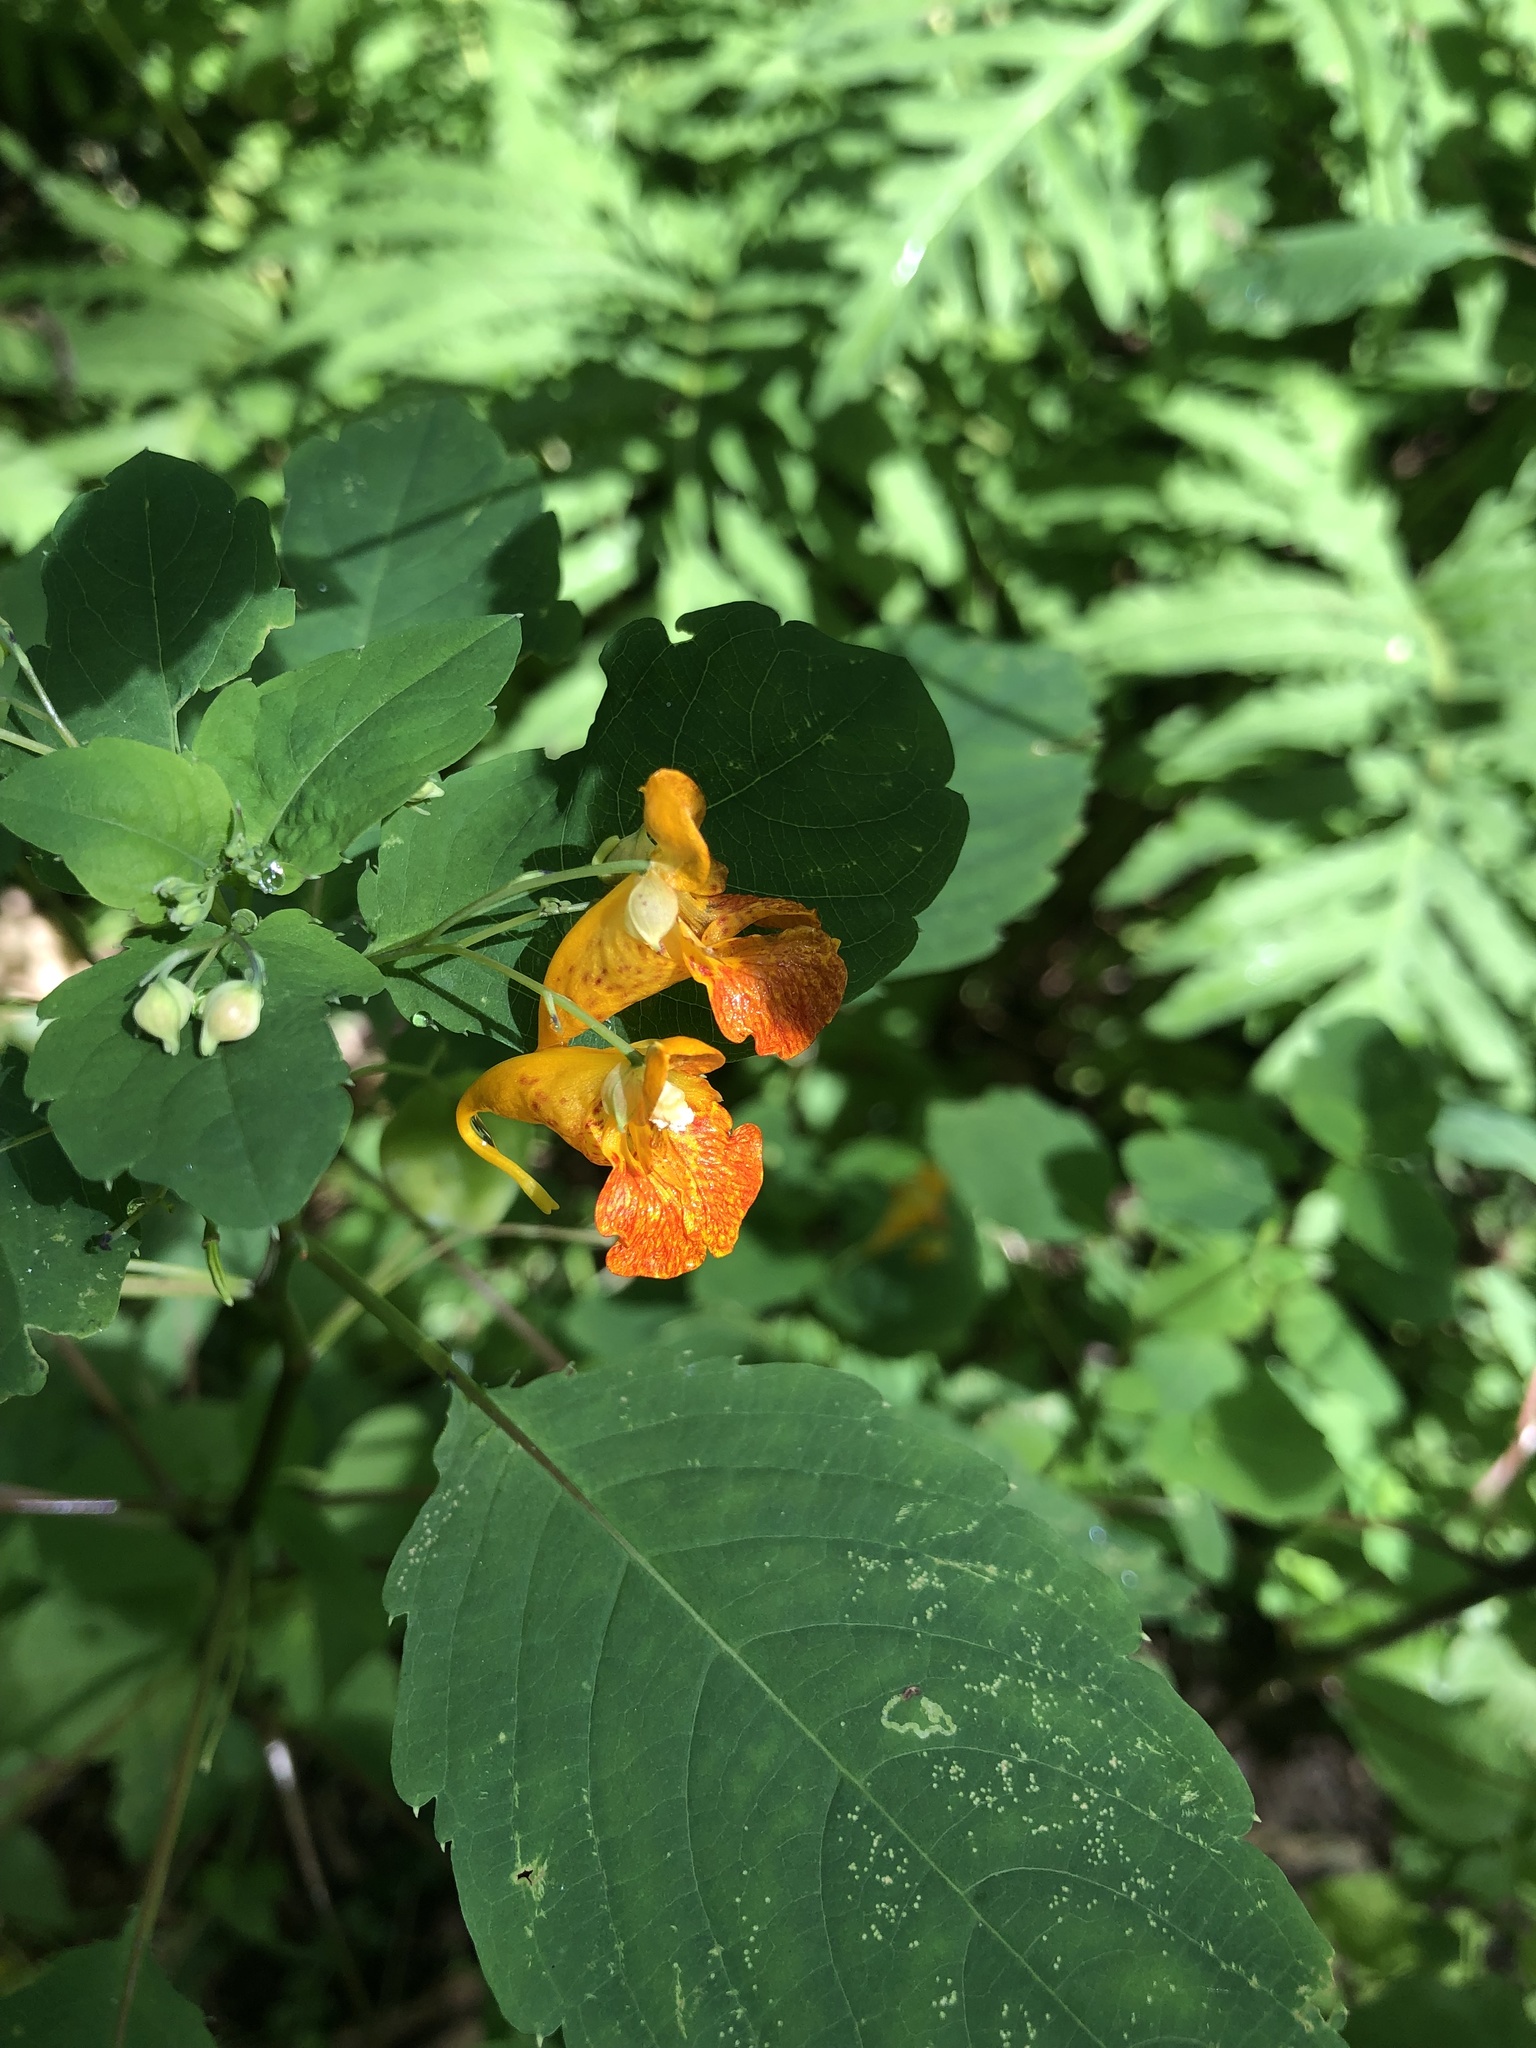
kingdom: Plantae
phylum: Tracheophyta
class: Magnoliopsida
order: Ericales
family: Balsaminaceae
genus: Impatiens
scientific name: Impatiens capensis
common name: Orange balsam
